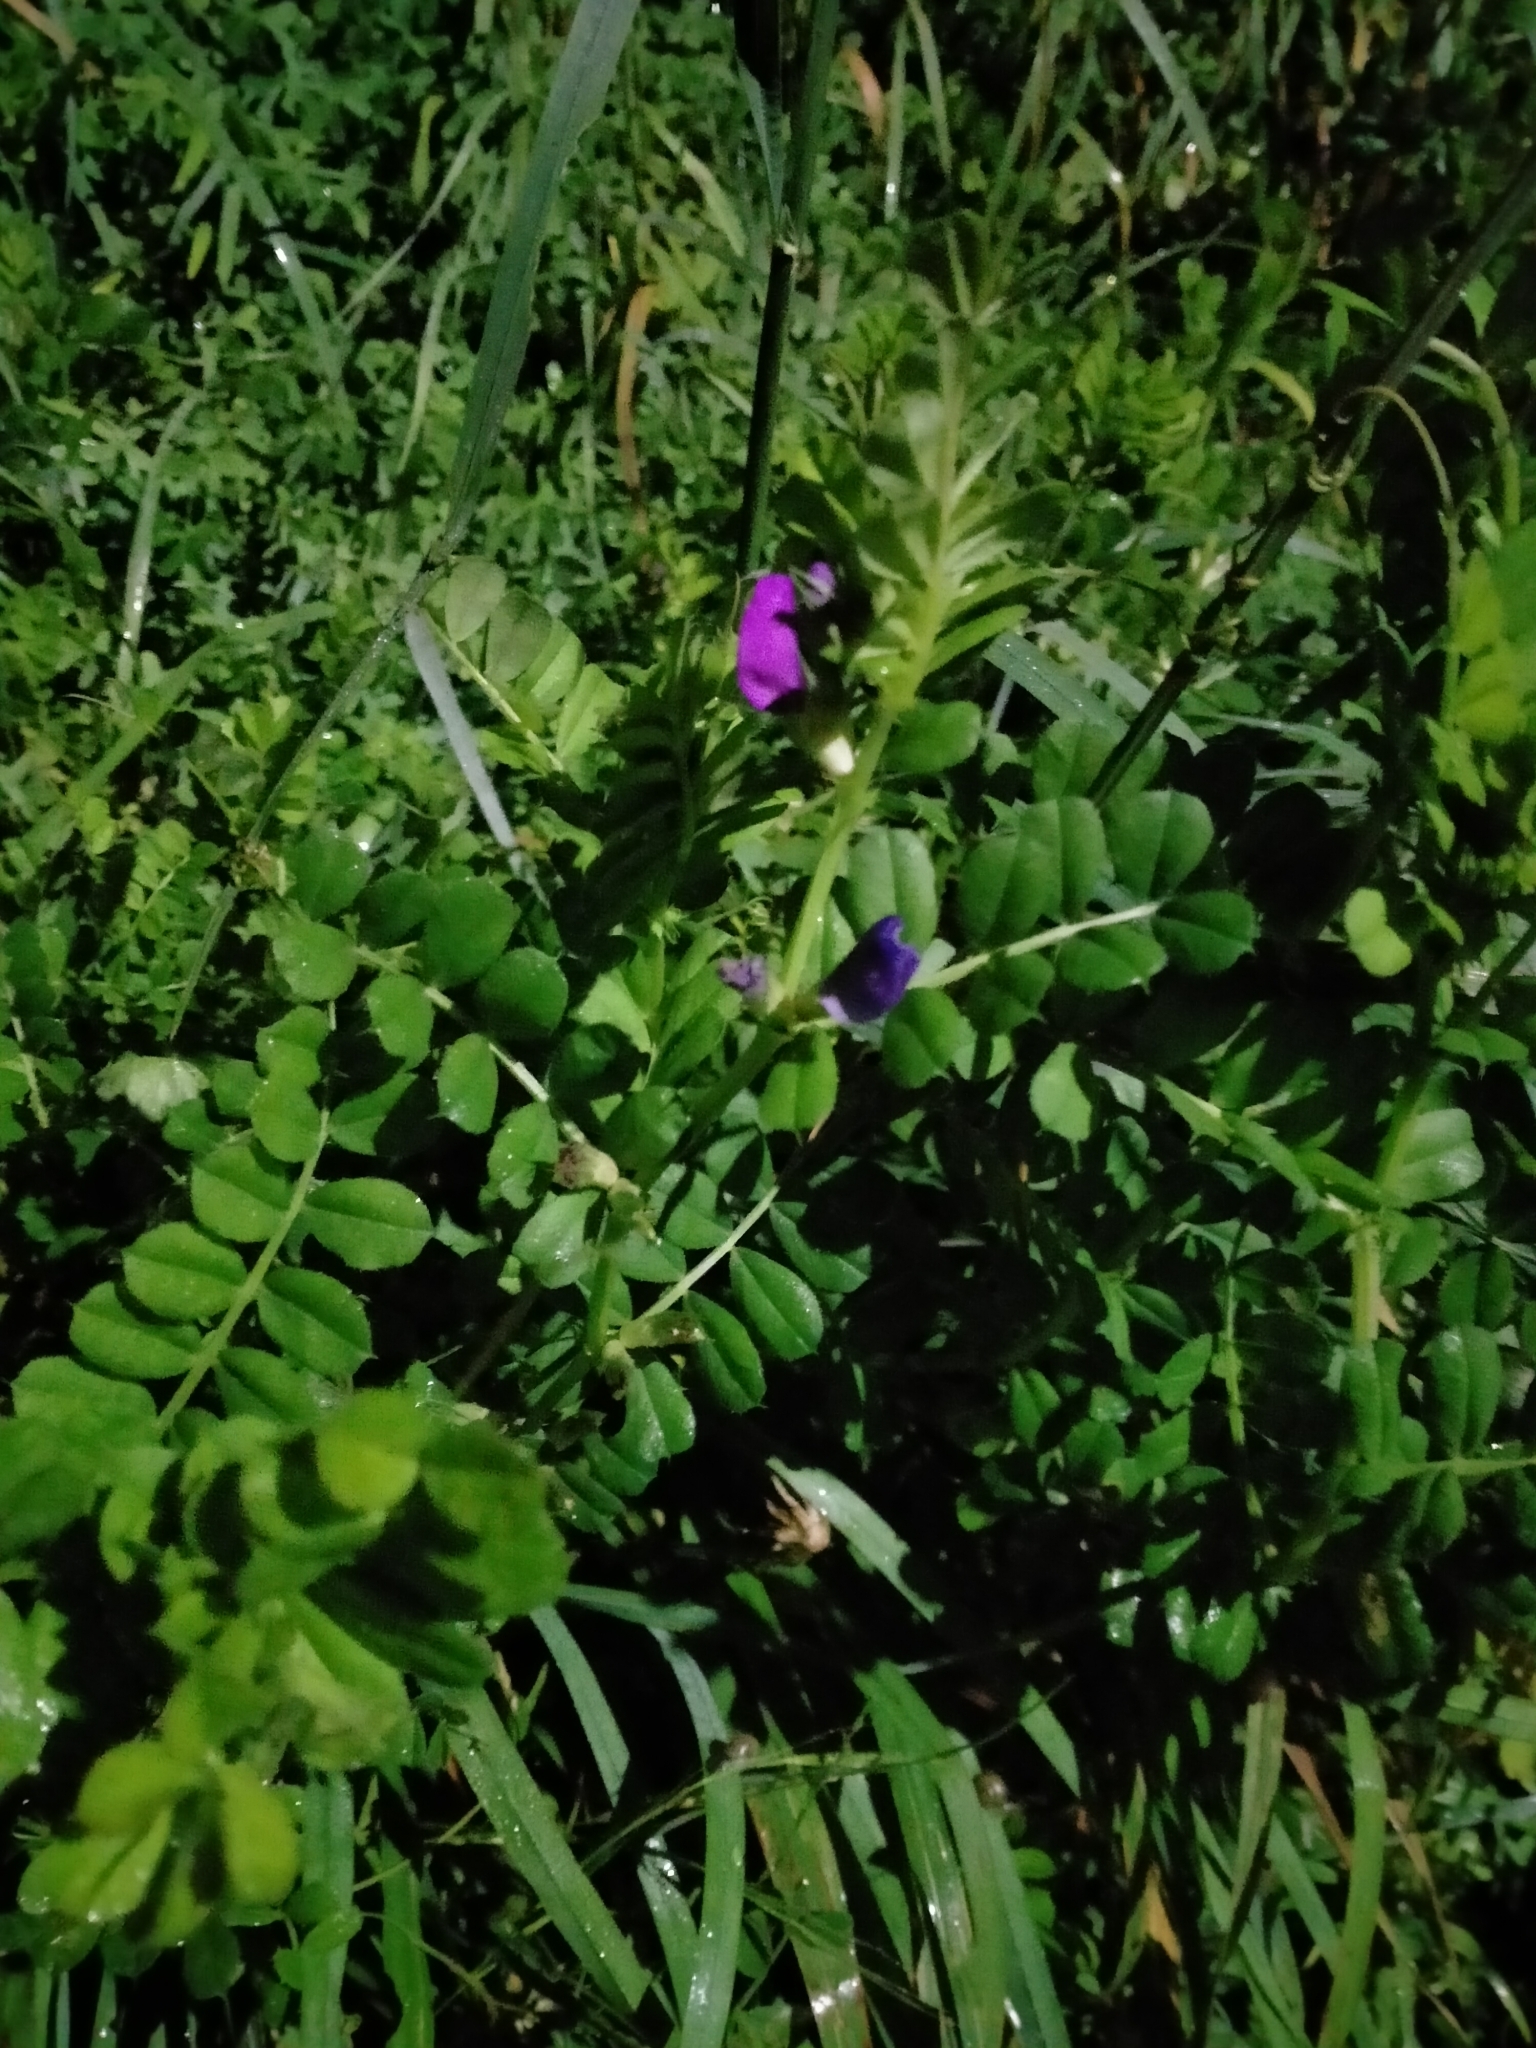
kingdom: Plantae
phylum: Tracheophyta
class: Magnoliopsida
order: Fabales
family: Fabaceae
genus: Vicia
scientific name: Vicia sativa
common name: Garden vetch
